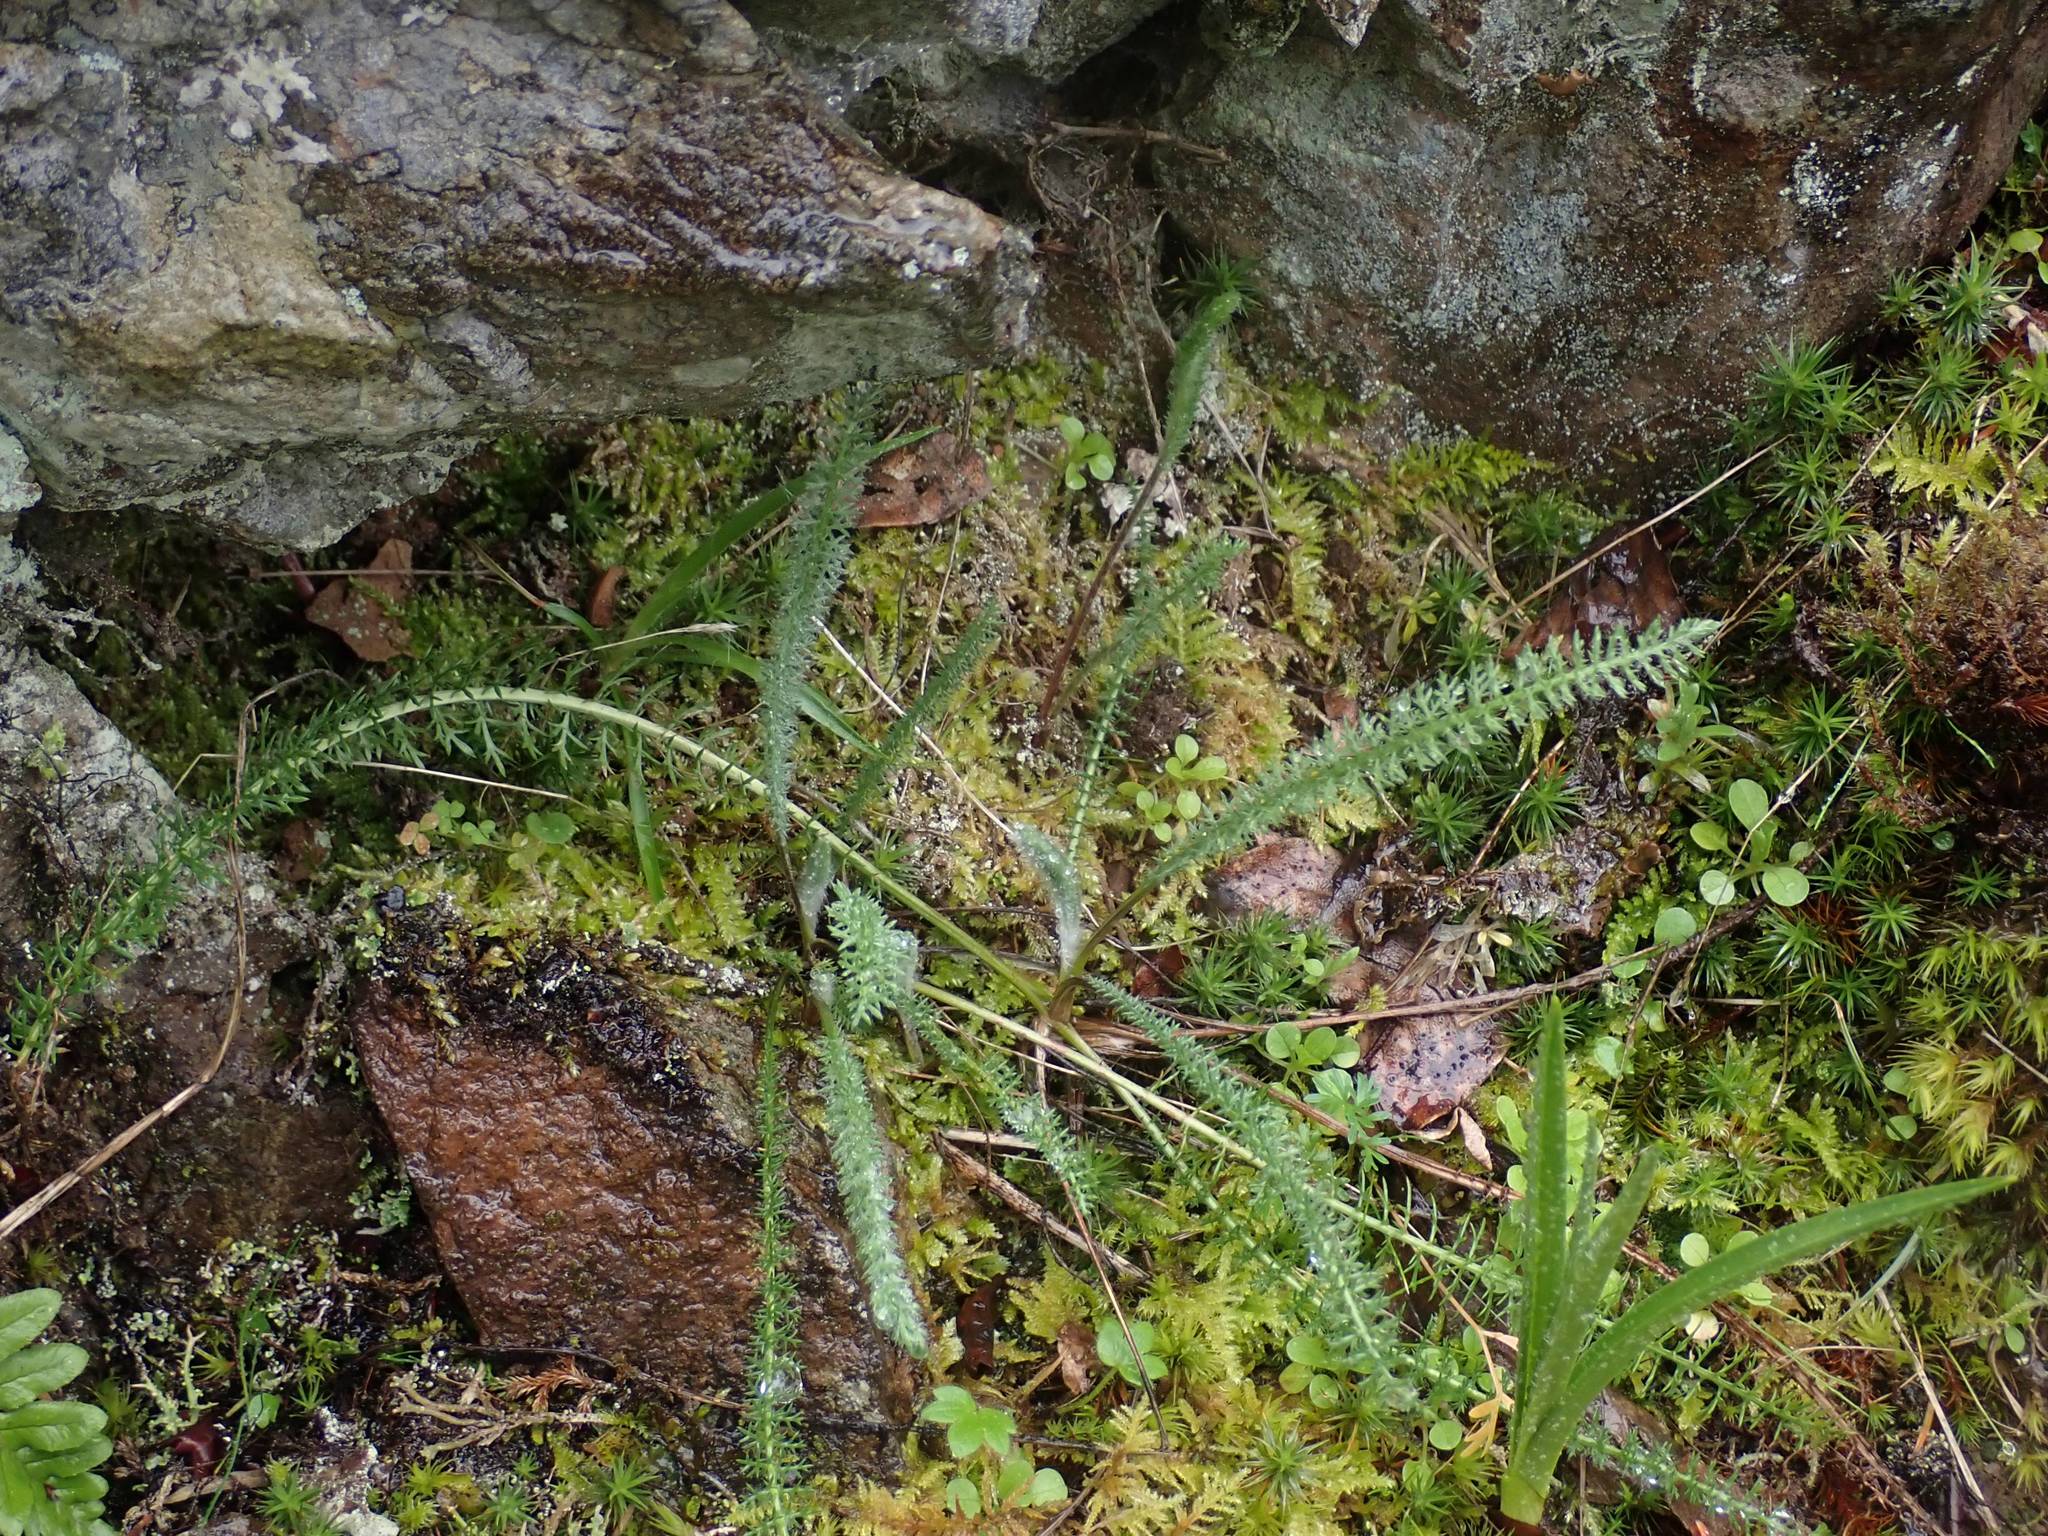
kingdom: Plantae
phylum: Tracheophyta
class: Magnoliopsida
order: Asterales
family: Asteraceae
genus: Achillea
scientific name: Achillea millefolium
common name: Yarrow
